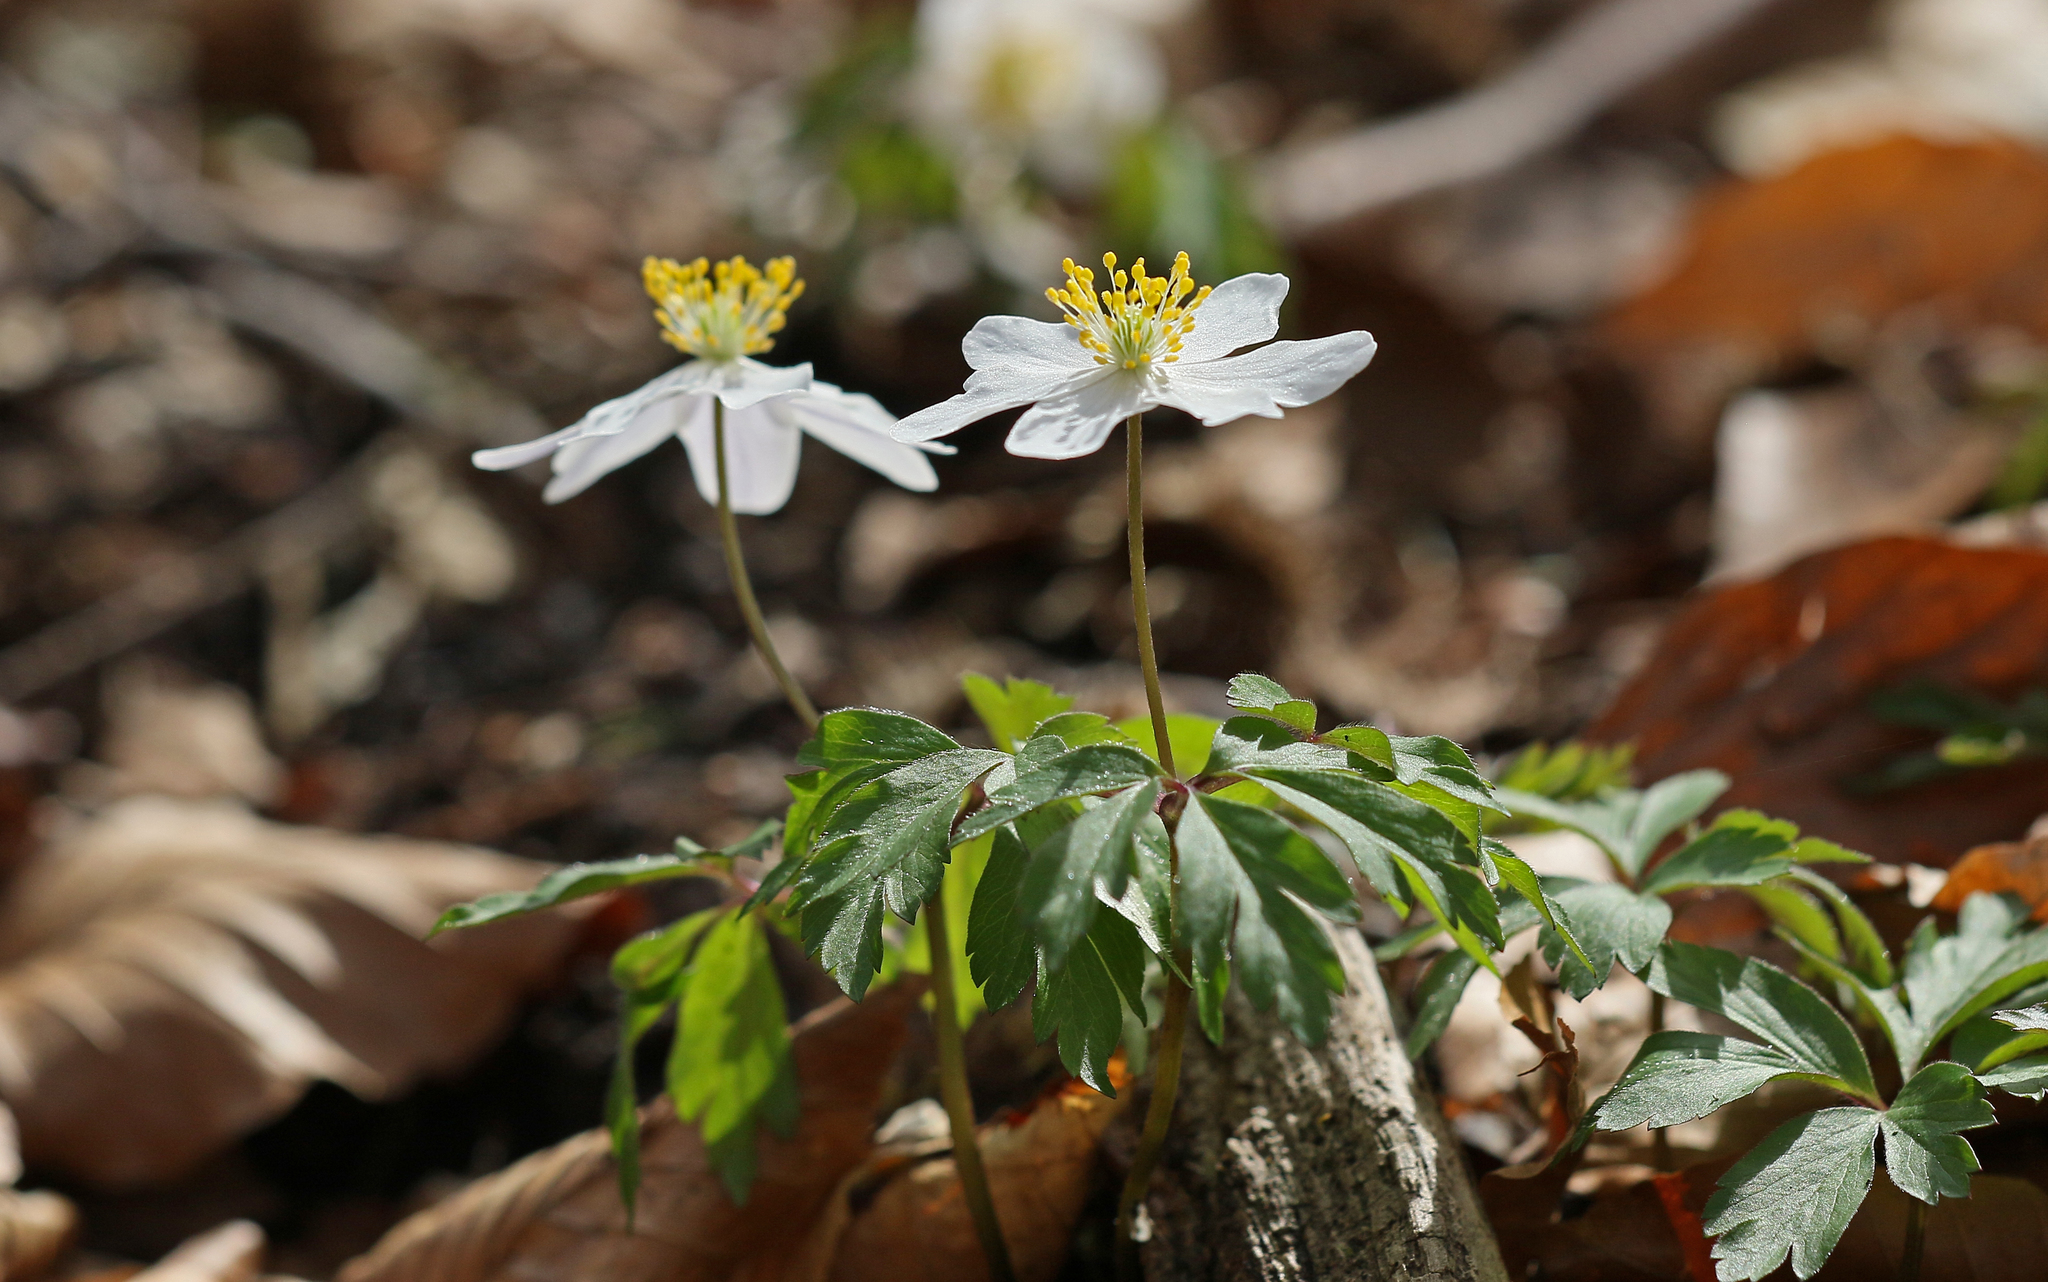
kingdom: Plantae
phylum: Tracheophyta
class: Magnoliopsida
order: Ranunculales
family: Ranunculaceae
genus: Anemone
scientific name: Anemone nemorosa
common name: Wood anemone
